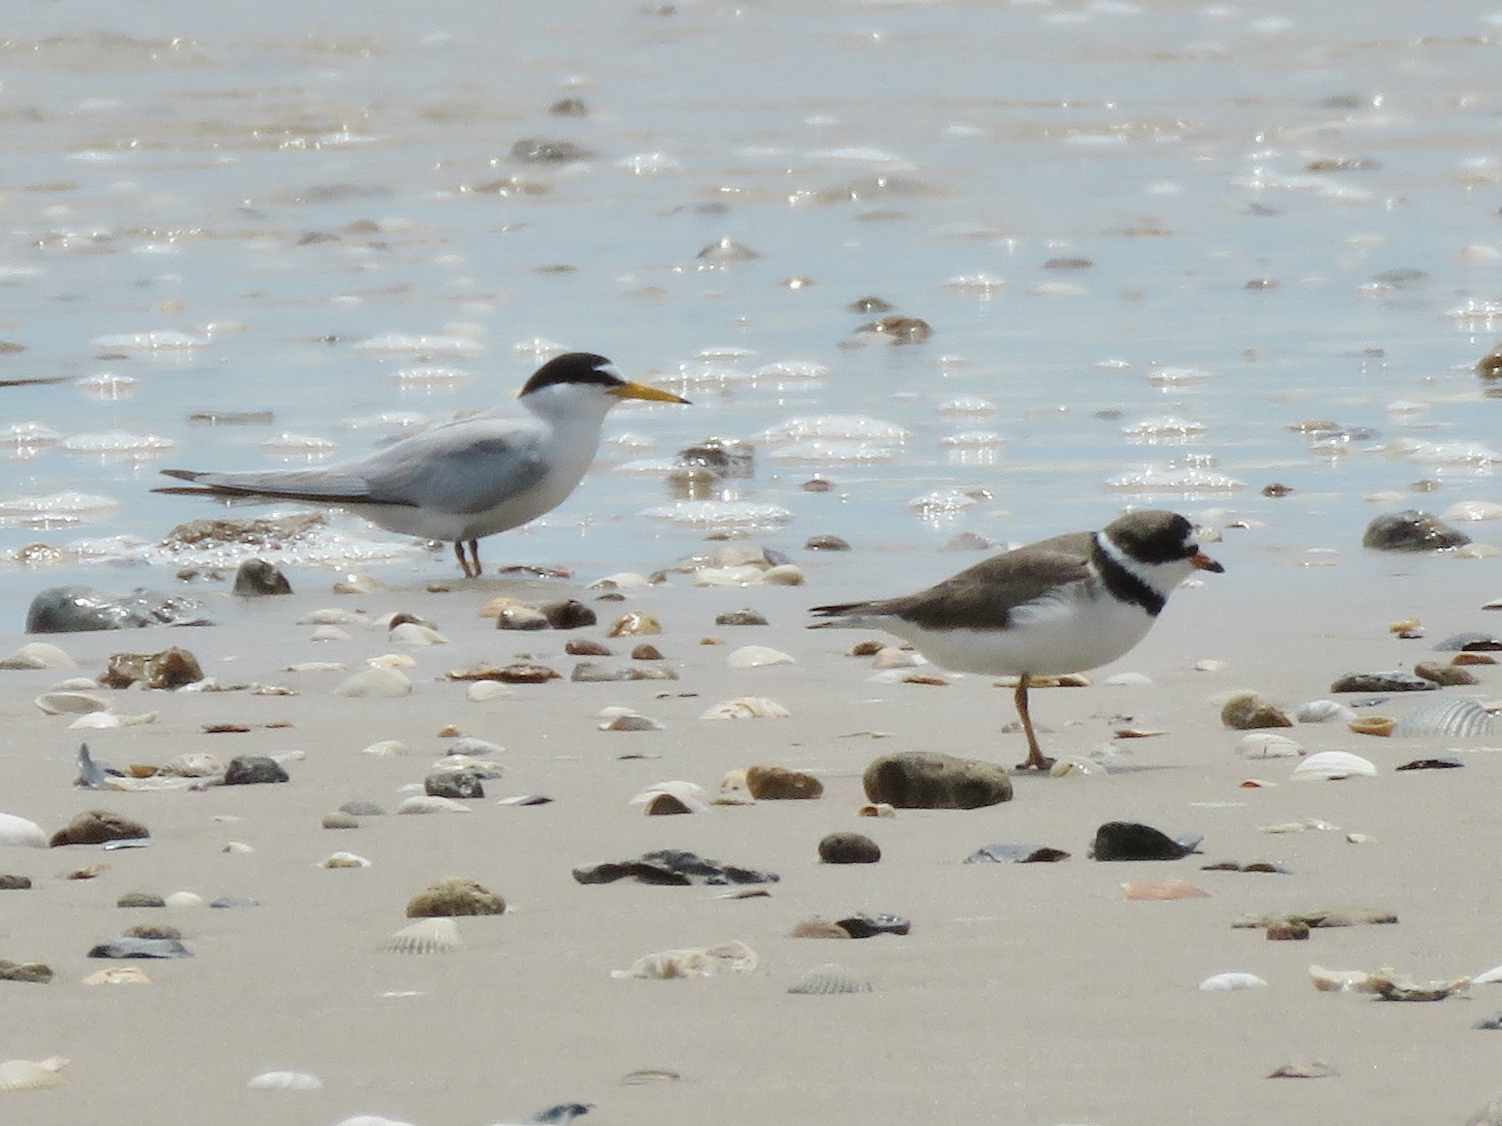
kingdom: Animalia
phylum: Chordata
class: Aves
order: Charadriiformes
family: Charadriidae
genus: Charadrius
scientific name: Charadrius semipalmatus
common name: Semipalmated plover
